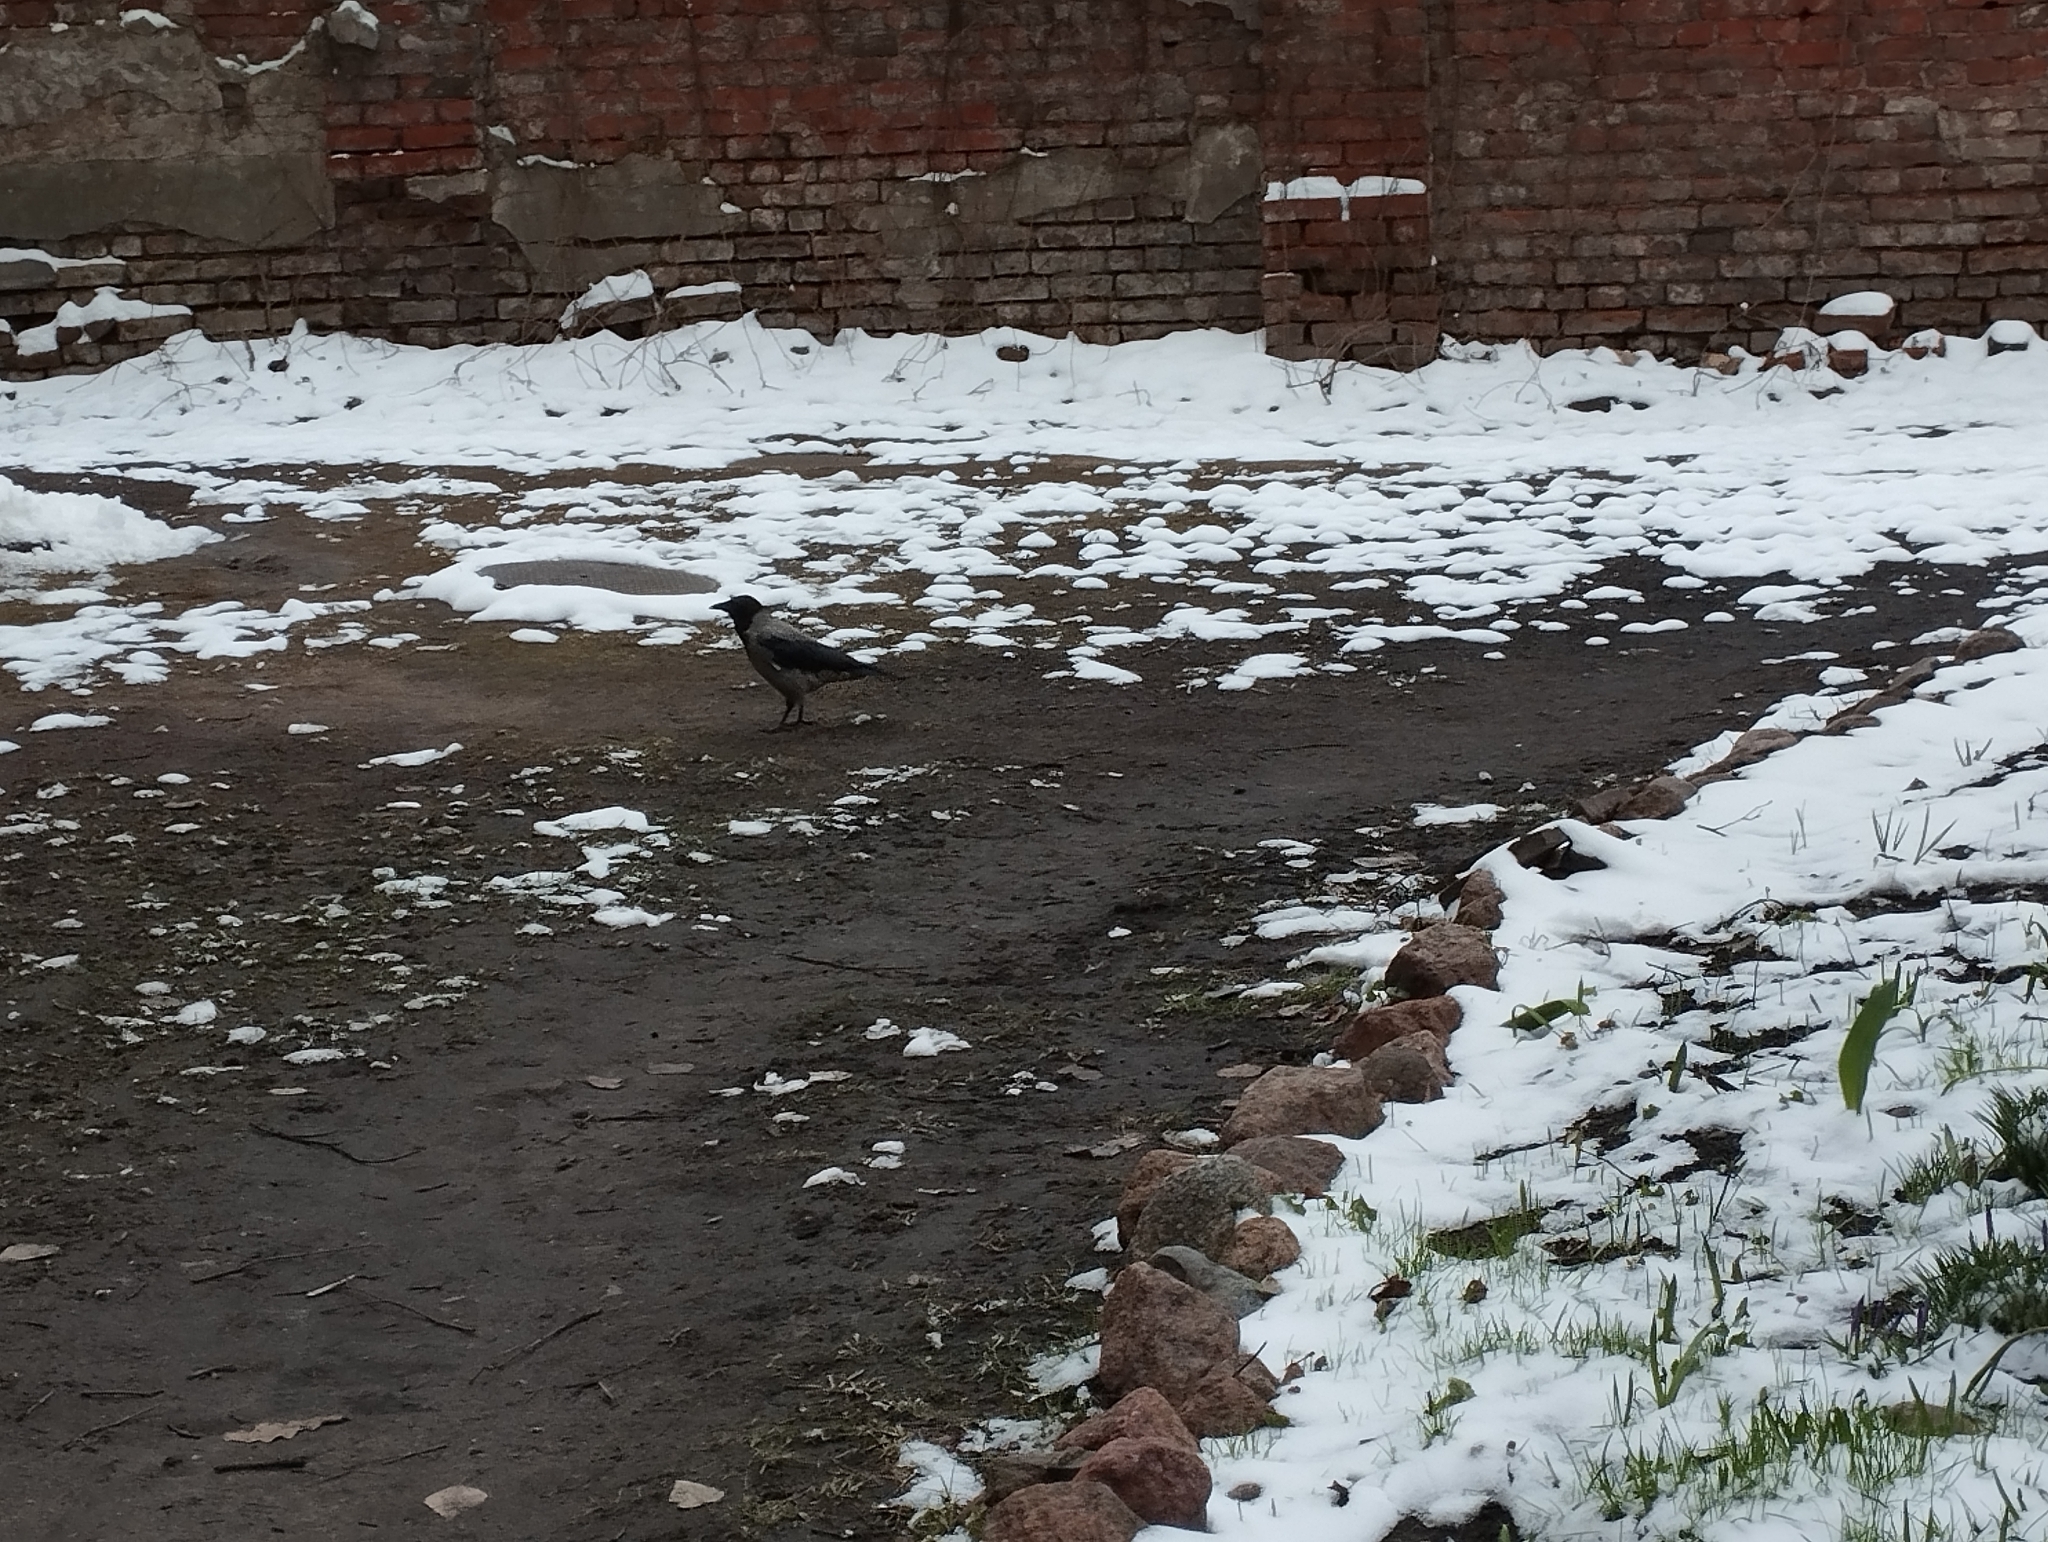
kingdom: Animalia
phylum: Chordata
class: Aves
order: Passeriformes
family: Corvidae
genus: Corvus
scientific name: Corvus cornix
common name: Hooded crow
